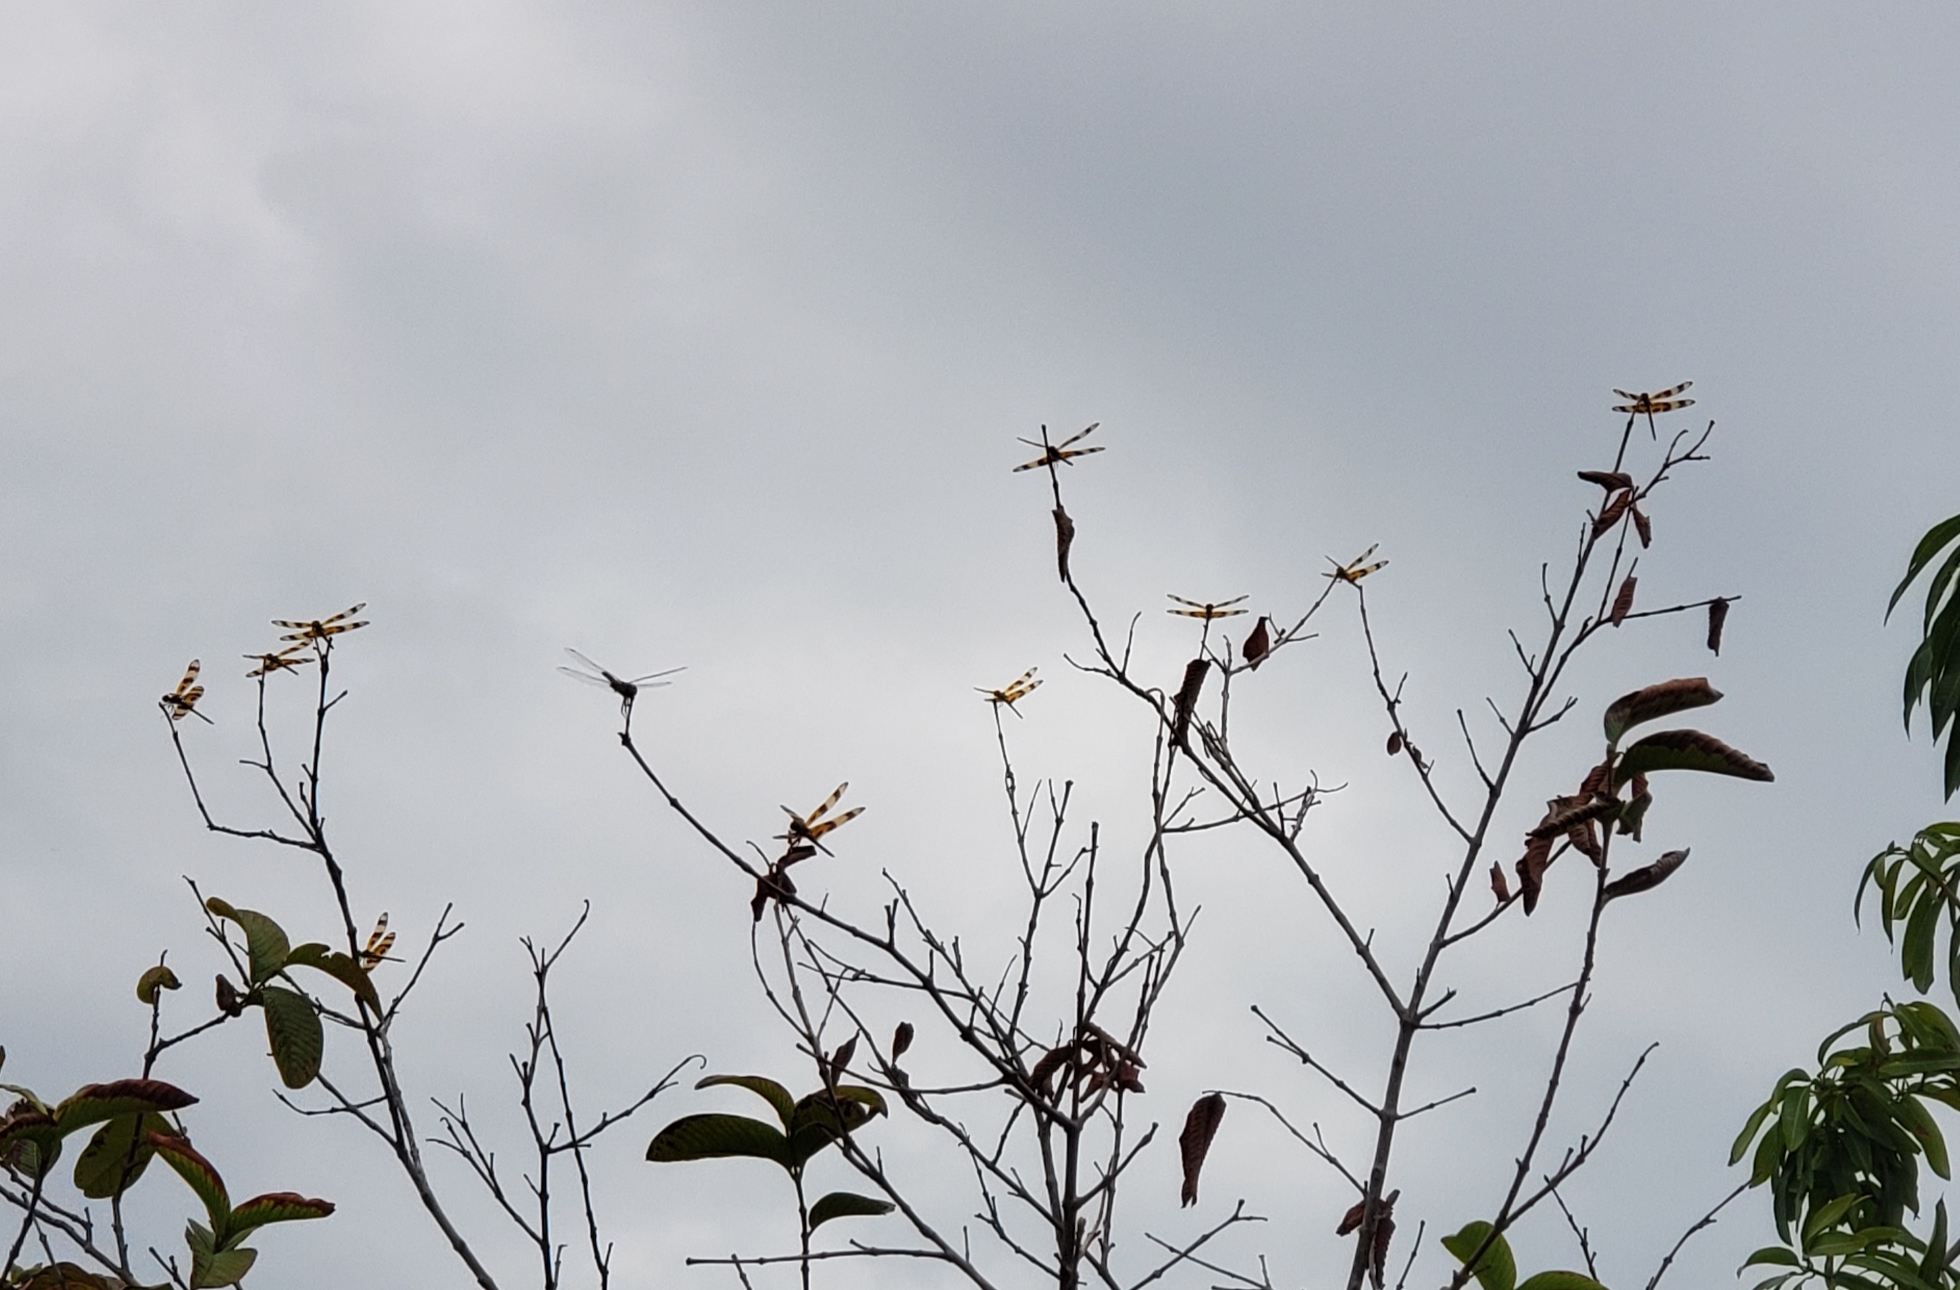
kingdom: Animalia
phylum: Arthropoda
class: Insecta
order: Odonata
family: Libellulidae
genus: Celithemis
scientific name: Celithemis eponina
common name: Halloween pennant
